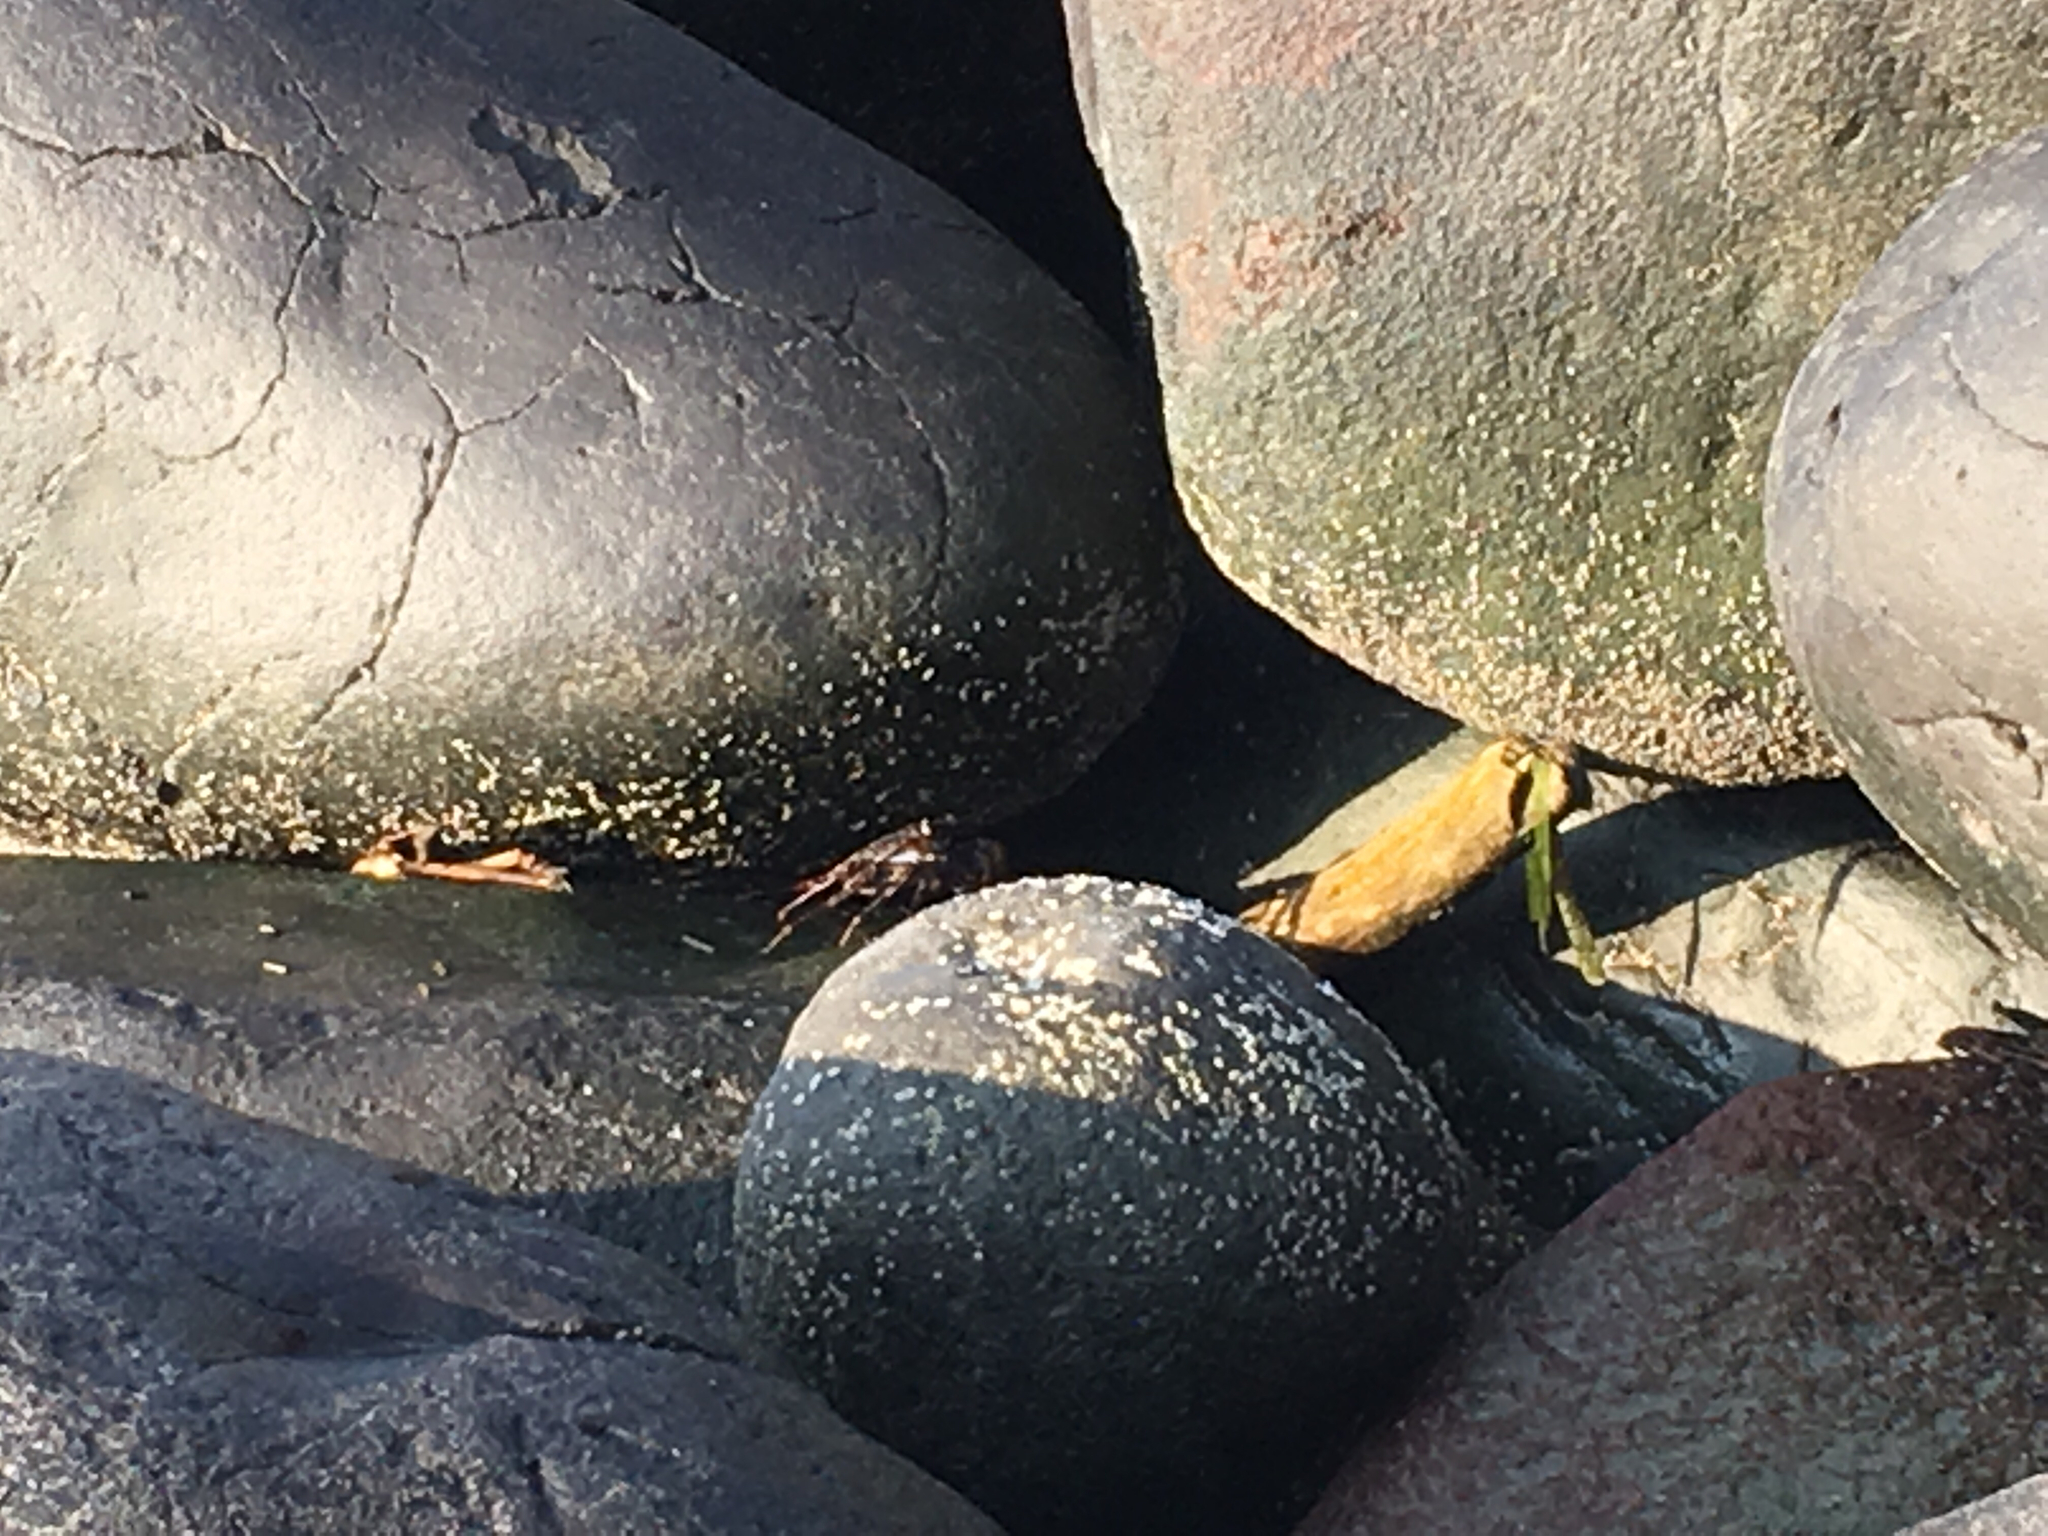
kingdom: Animalia
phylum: Arthropoda
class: Malacostraca
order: Decapoda
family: Grapsidae
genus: Grapsus
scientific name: Grapsus grapsus
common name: Sally lightfoot
